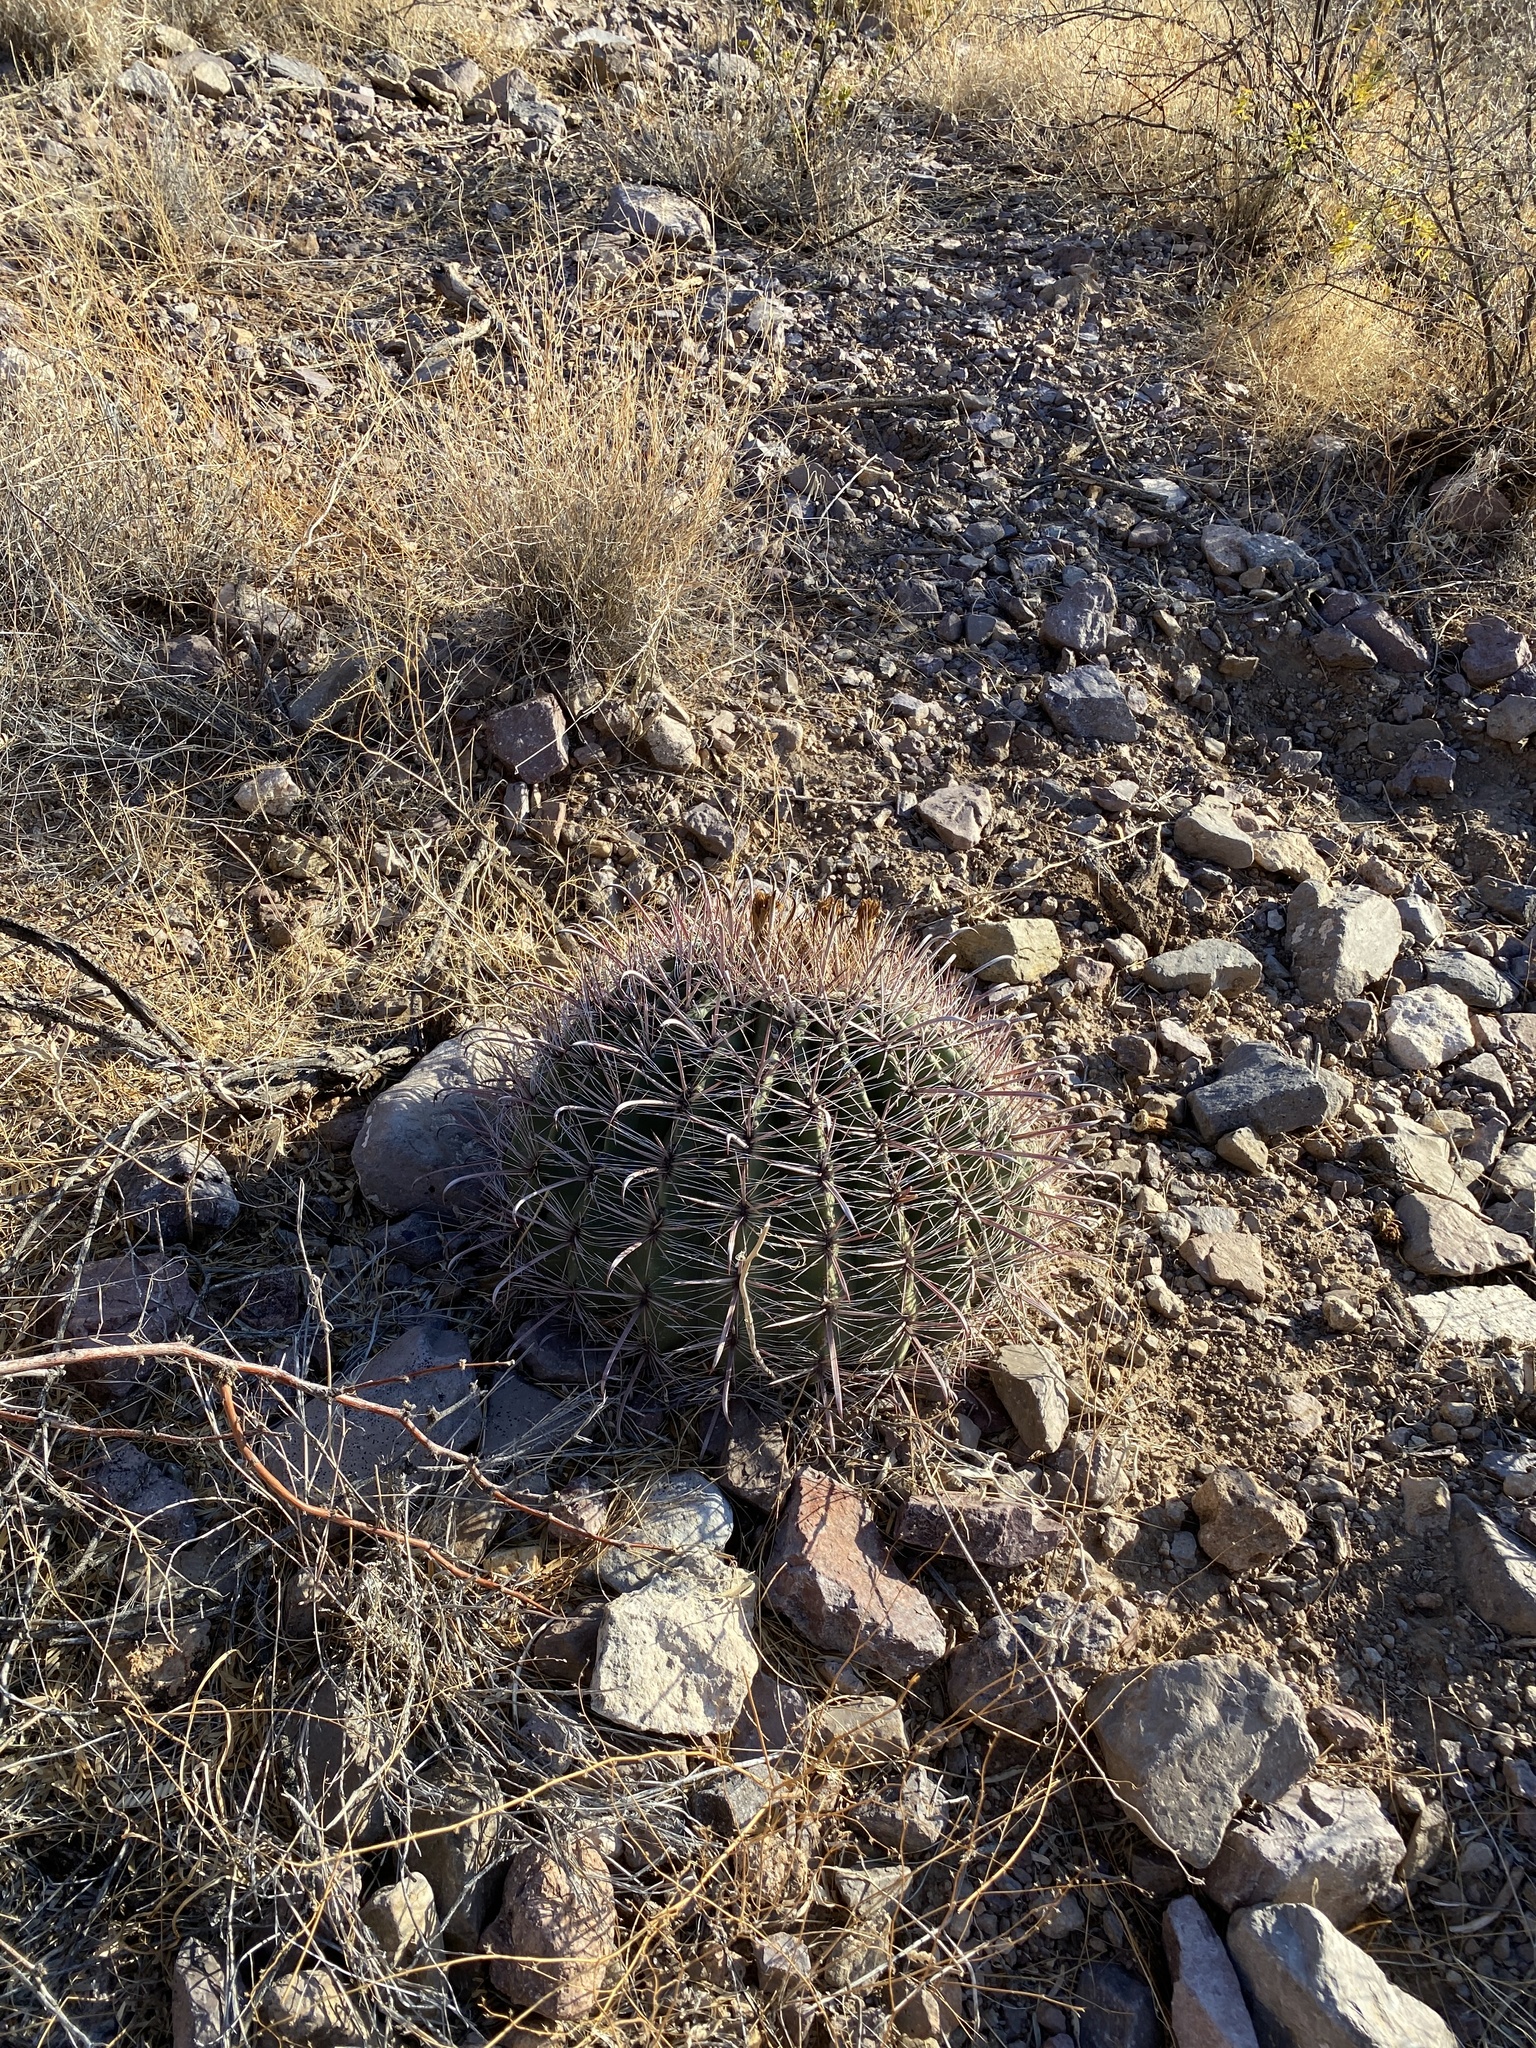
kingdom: Plantae
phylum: Tracheophyta
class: Magnoliopsida
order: Caryophyllales
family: Cactaceae
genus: Ferocactus
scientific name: Ferocactus wislizeni
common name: Candy barrel cactus
